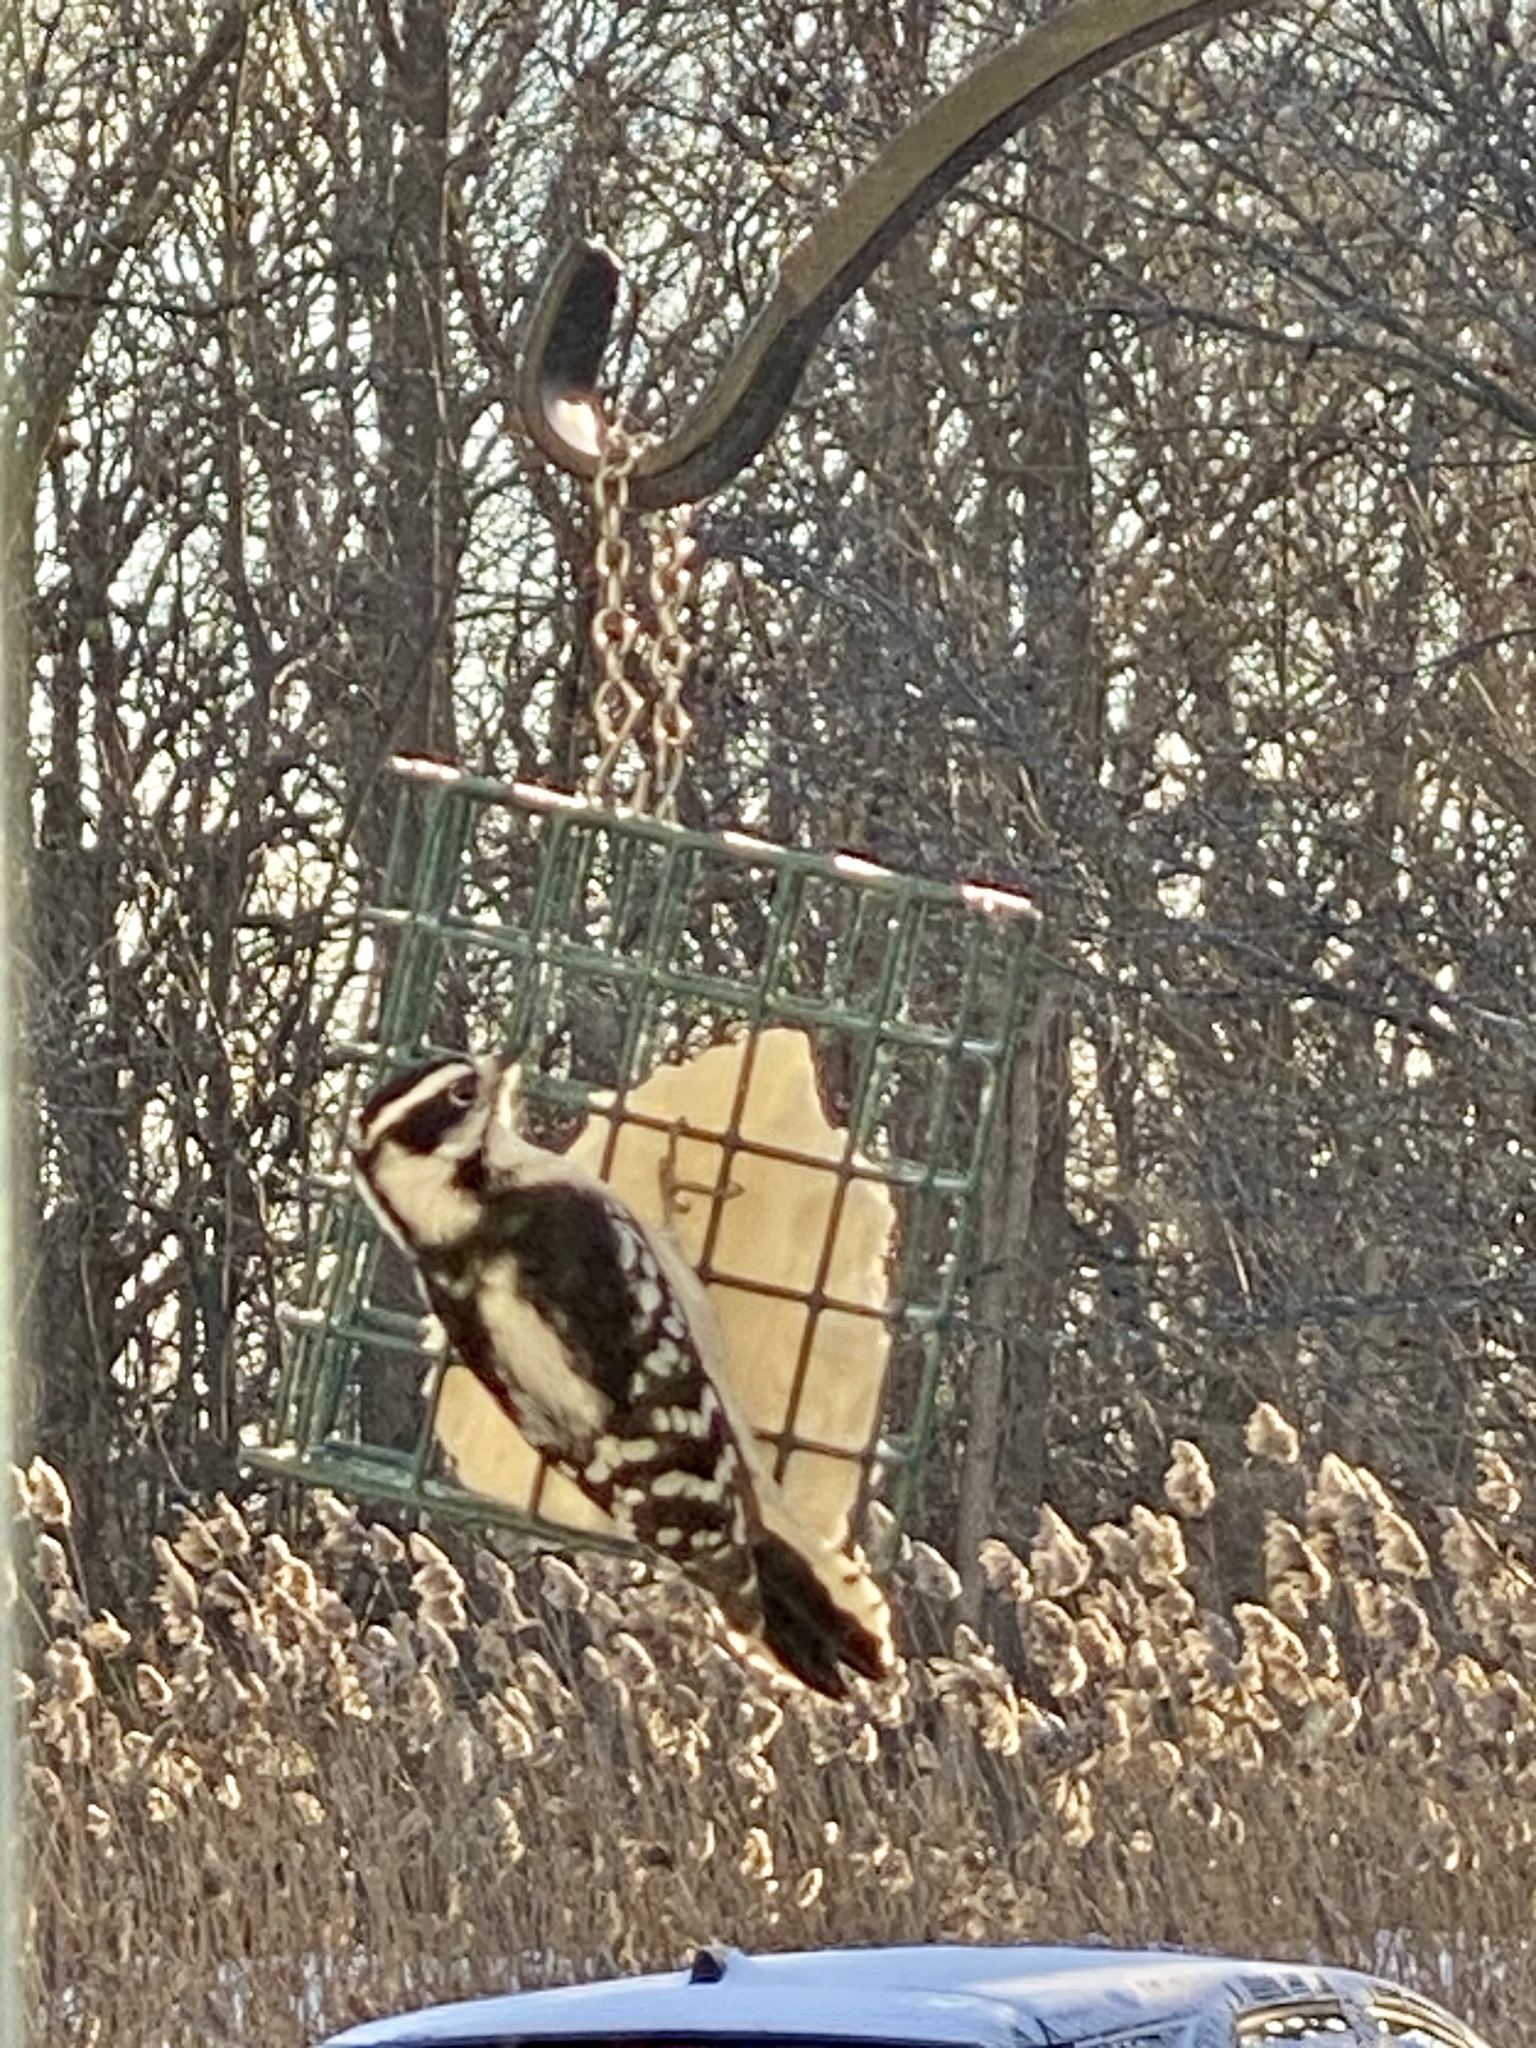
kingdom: Animalia
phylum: Chordata
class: Aves
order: Piciformes
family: Picidae
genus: Dryobates
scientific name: Dryobates pubescens
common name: Downy woodpecker
